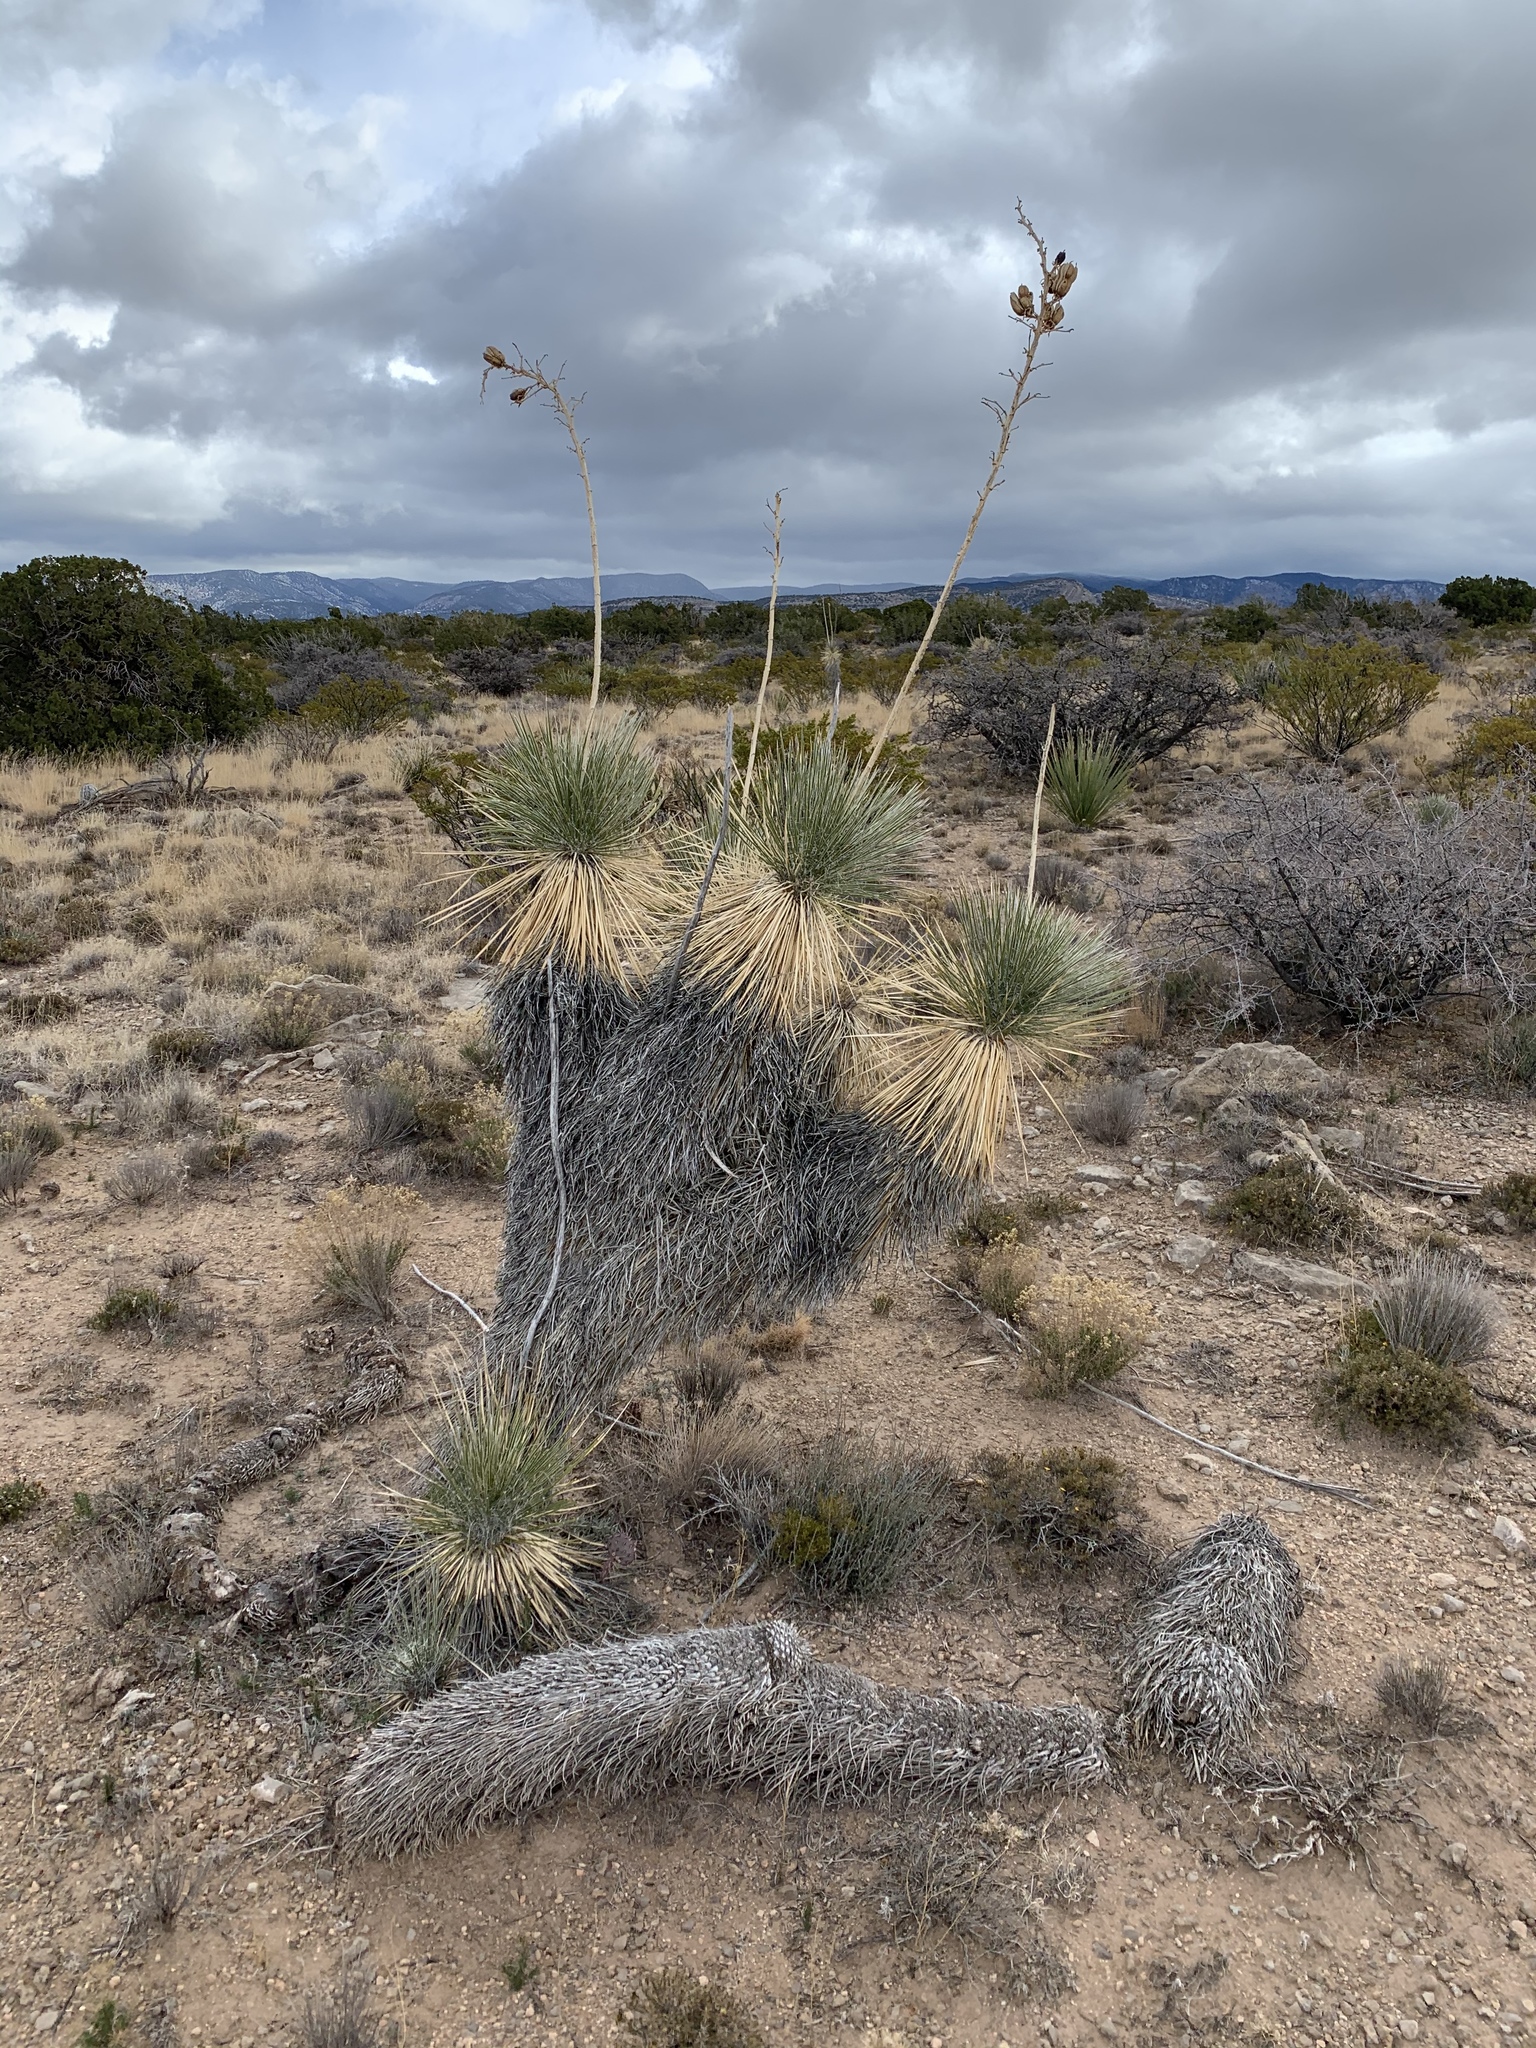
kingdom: Plantae
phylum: Tracheophyta
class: Liliopsida
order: Asparagales
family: Asparagaceae
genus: Yucca
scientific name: Yucca elata
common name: Palmella
